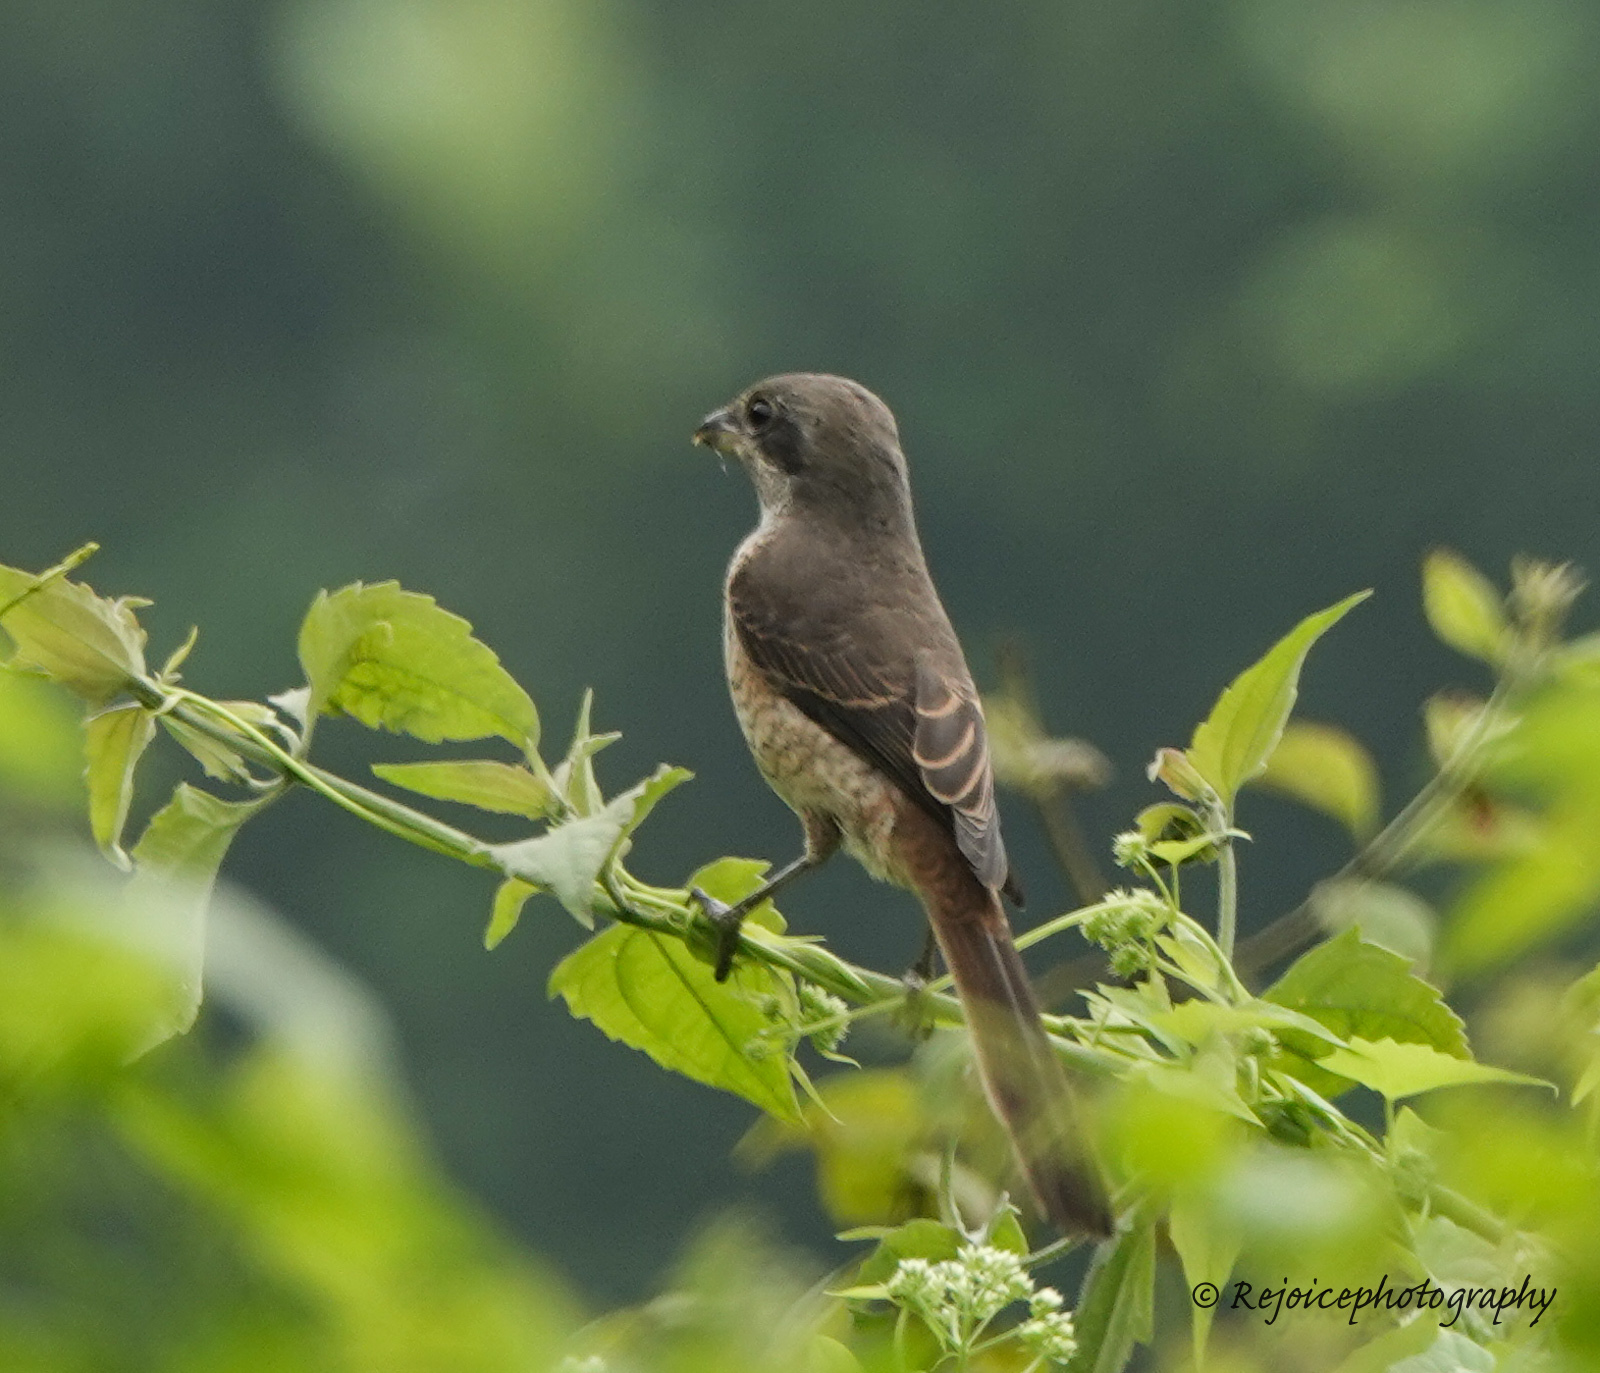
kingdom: Animalia
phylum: Chordata
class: Aves
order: Passeriformes
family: Laniidae
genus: Lanius
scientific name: Lanius cristatus
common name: Brown shrike
